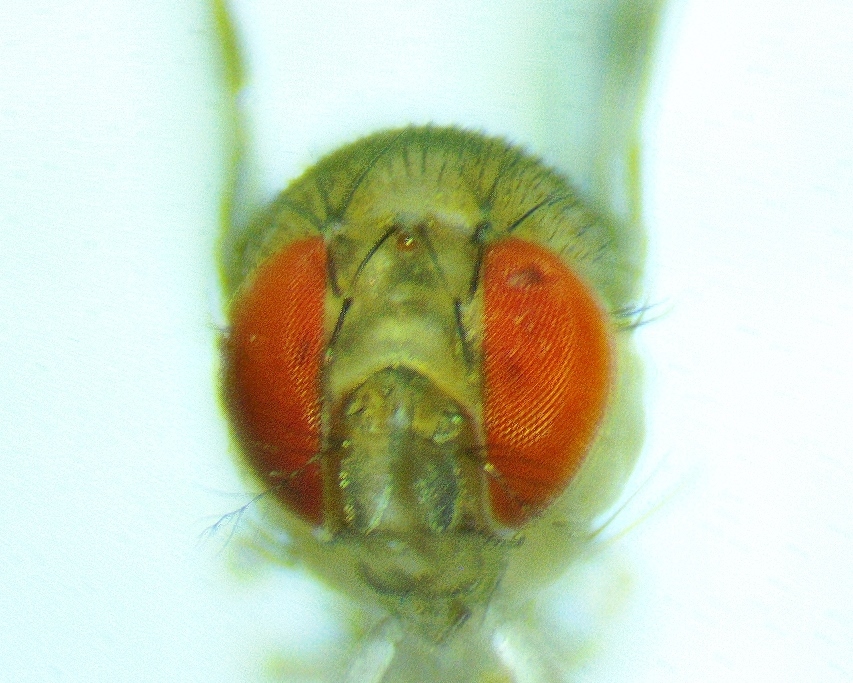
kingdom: Animalia
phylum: Arthropoda
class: Insecta
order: Diptera
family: Drosophilidae
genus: Leucophenga
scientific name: Leucophenga varia
